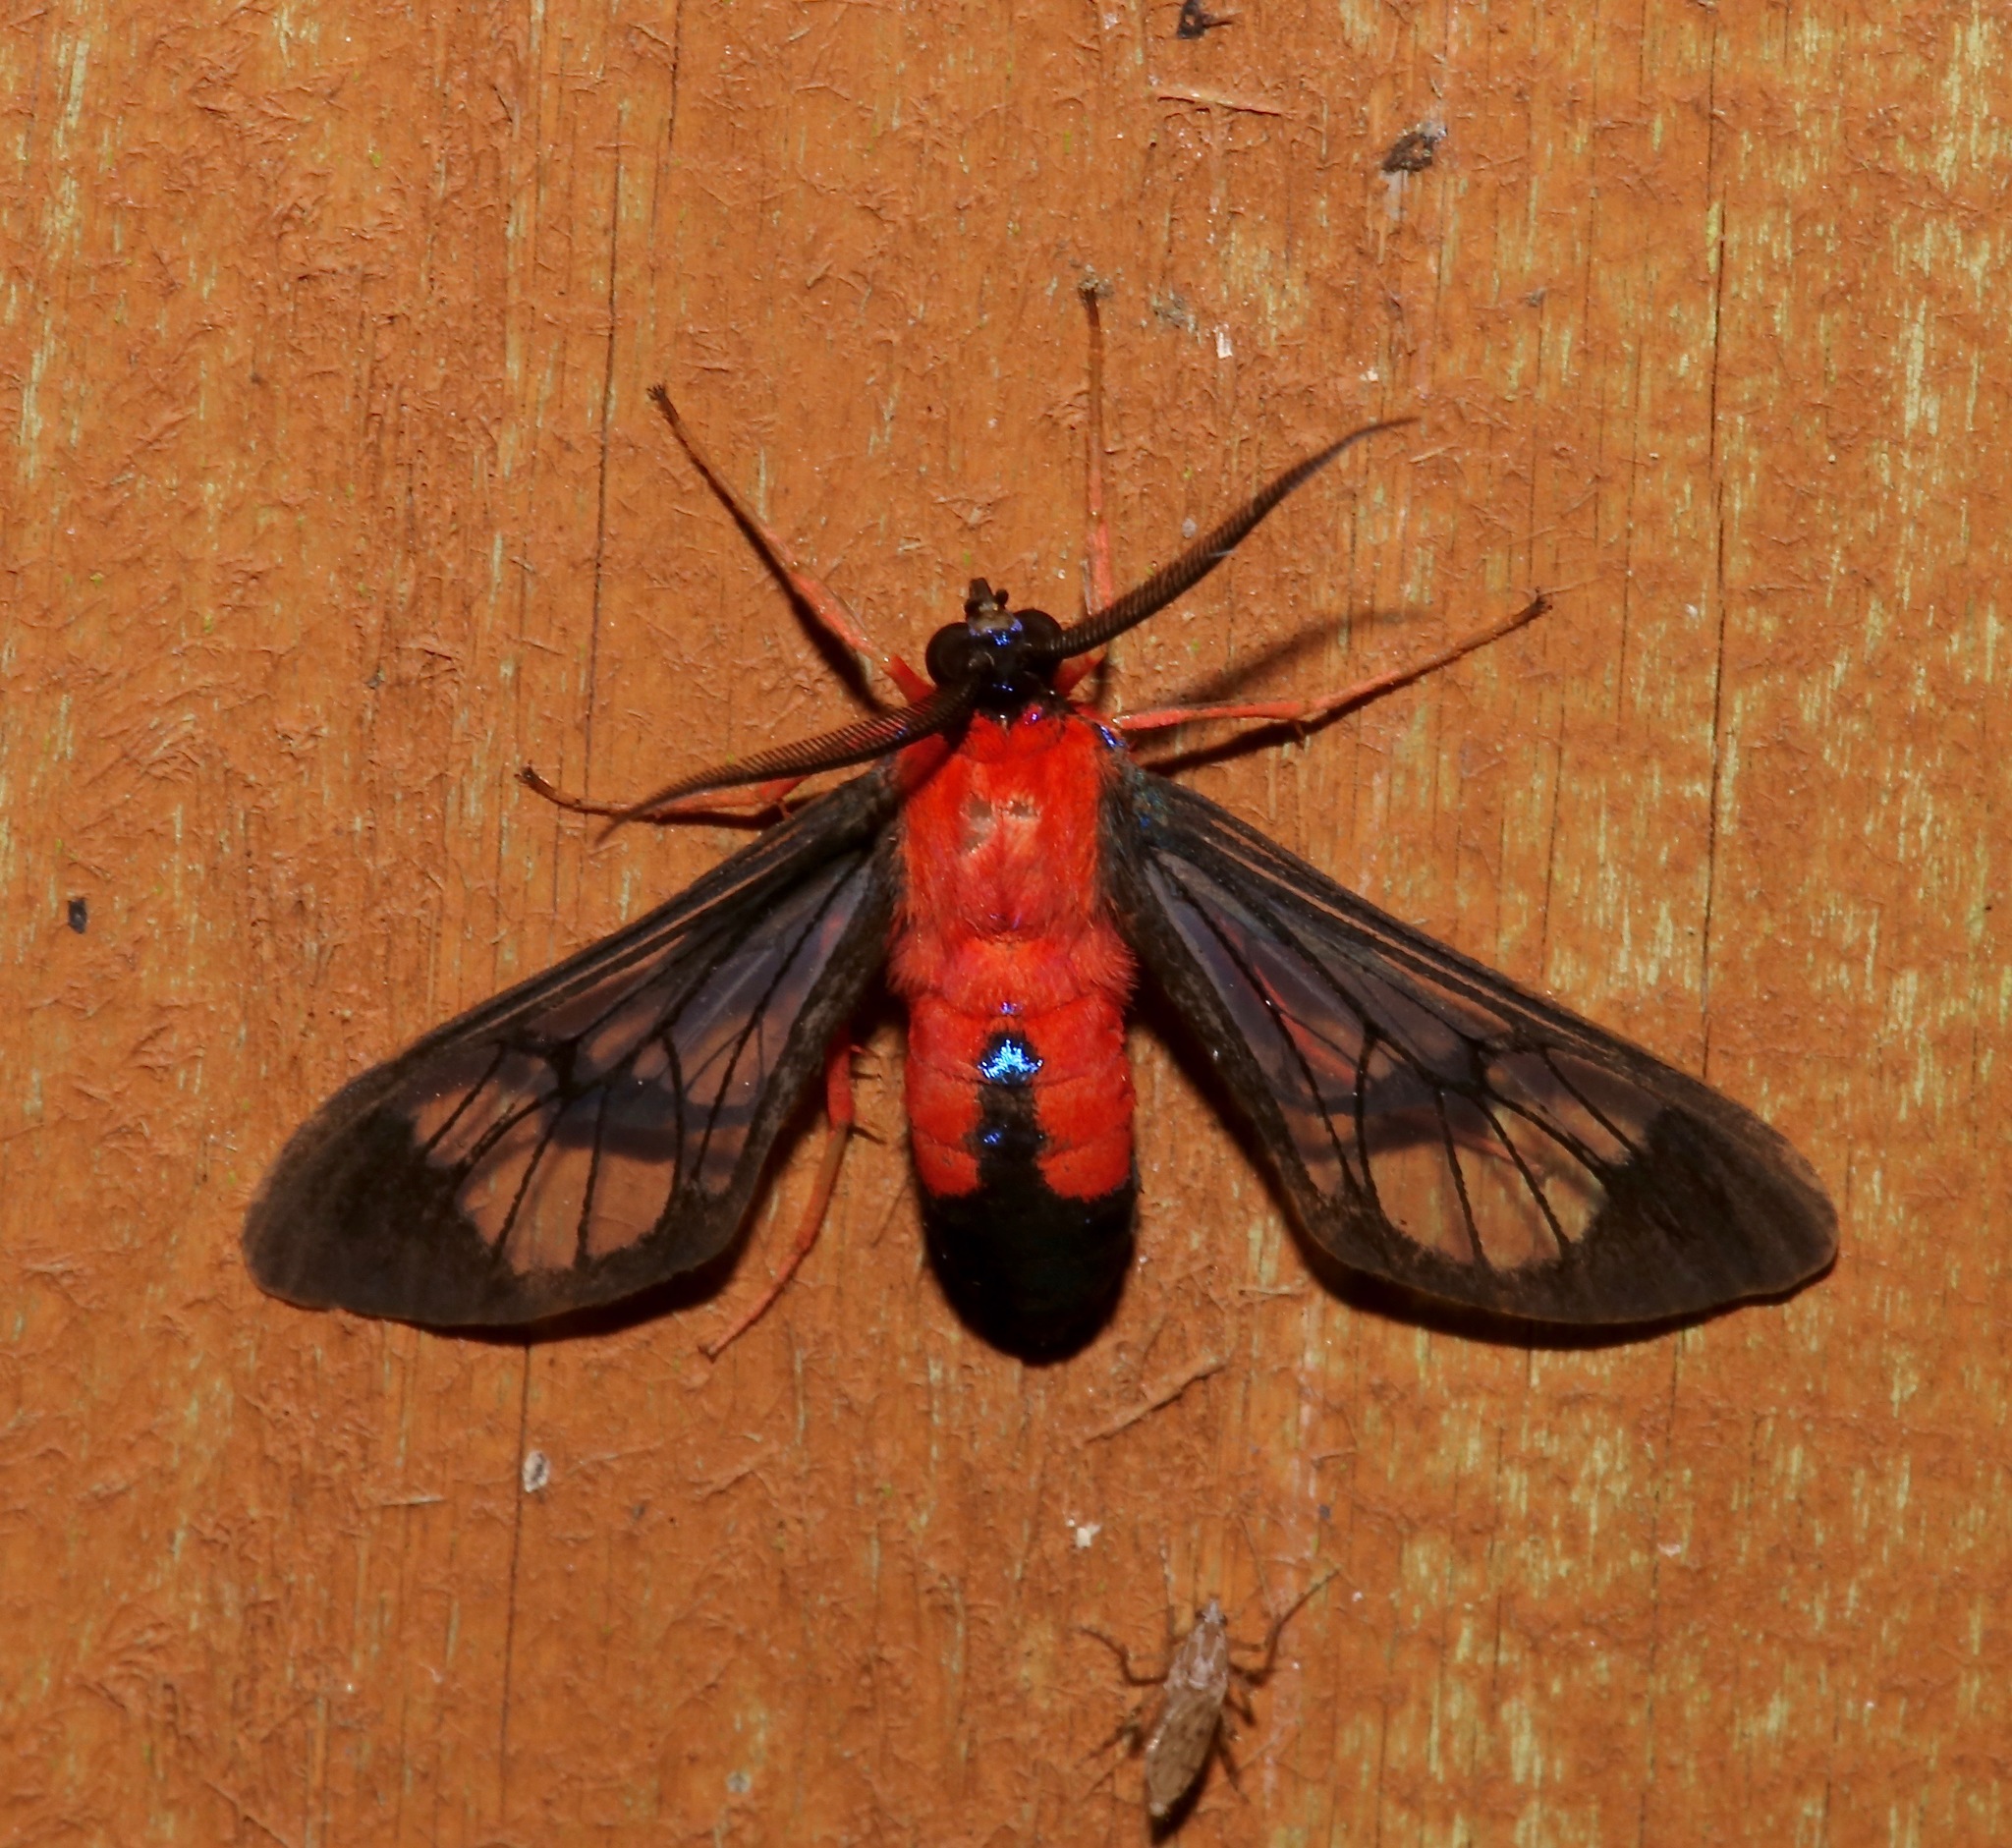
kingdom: Animalia
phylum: Arthropoda
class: Insecta
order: Lepidoptera
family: Erebidae
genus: Cosmosoma
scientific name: Cosmosoma myrodora
